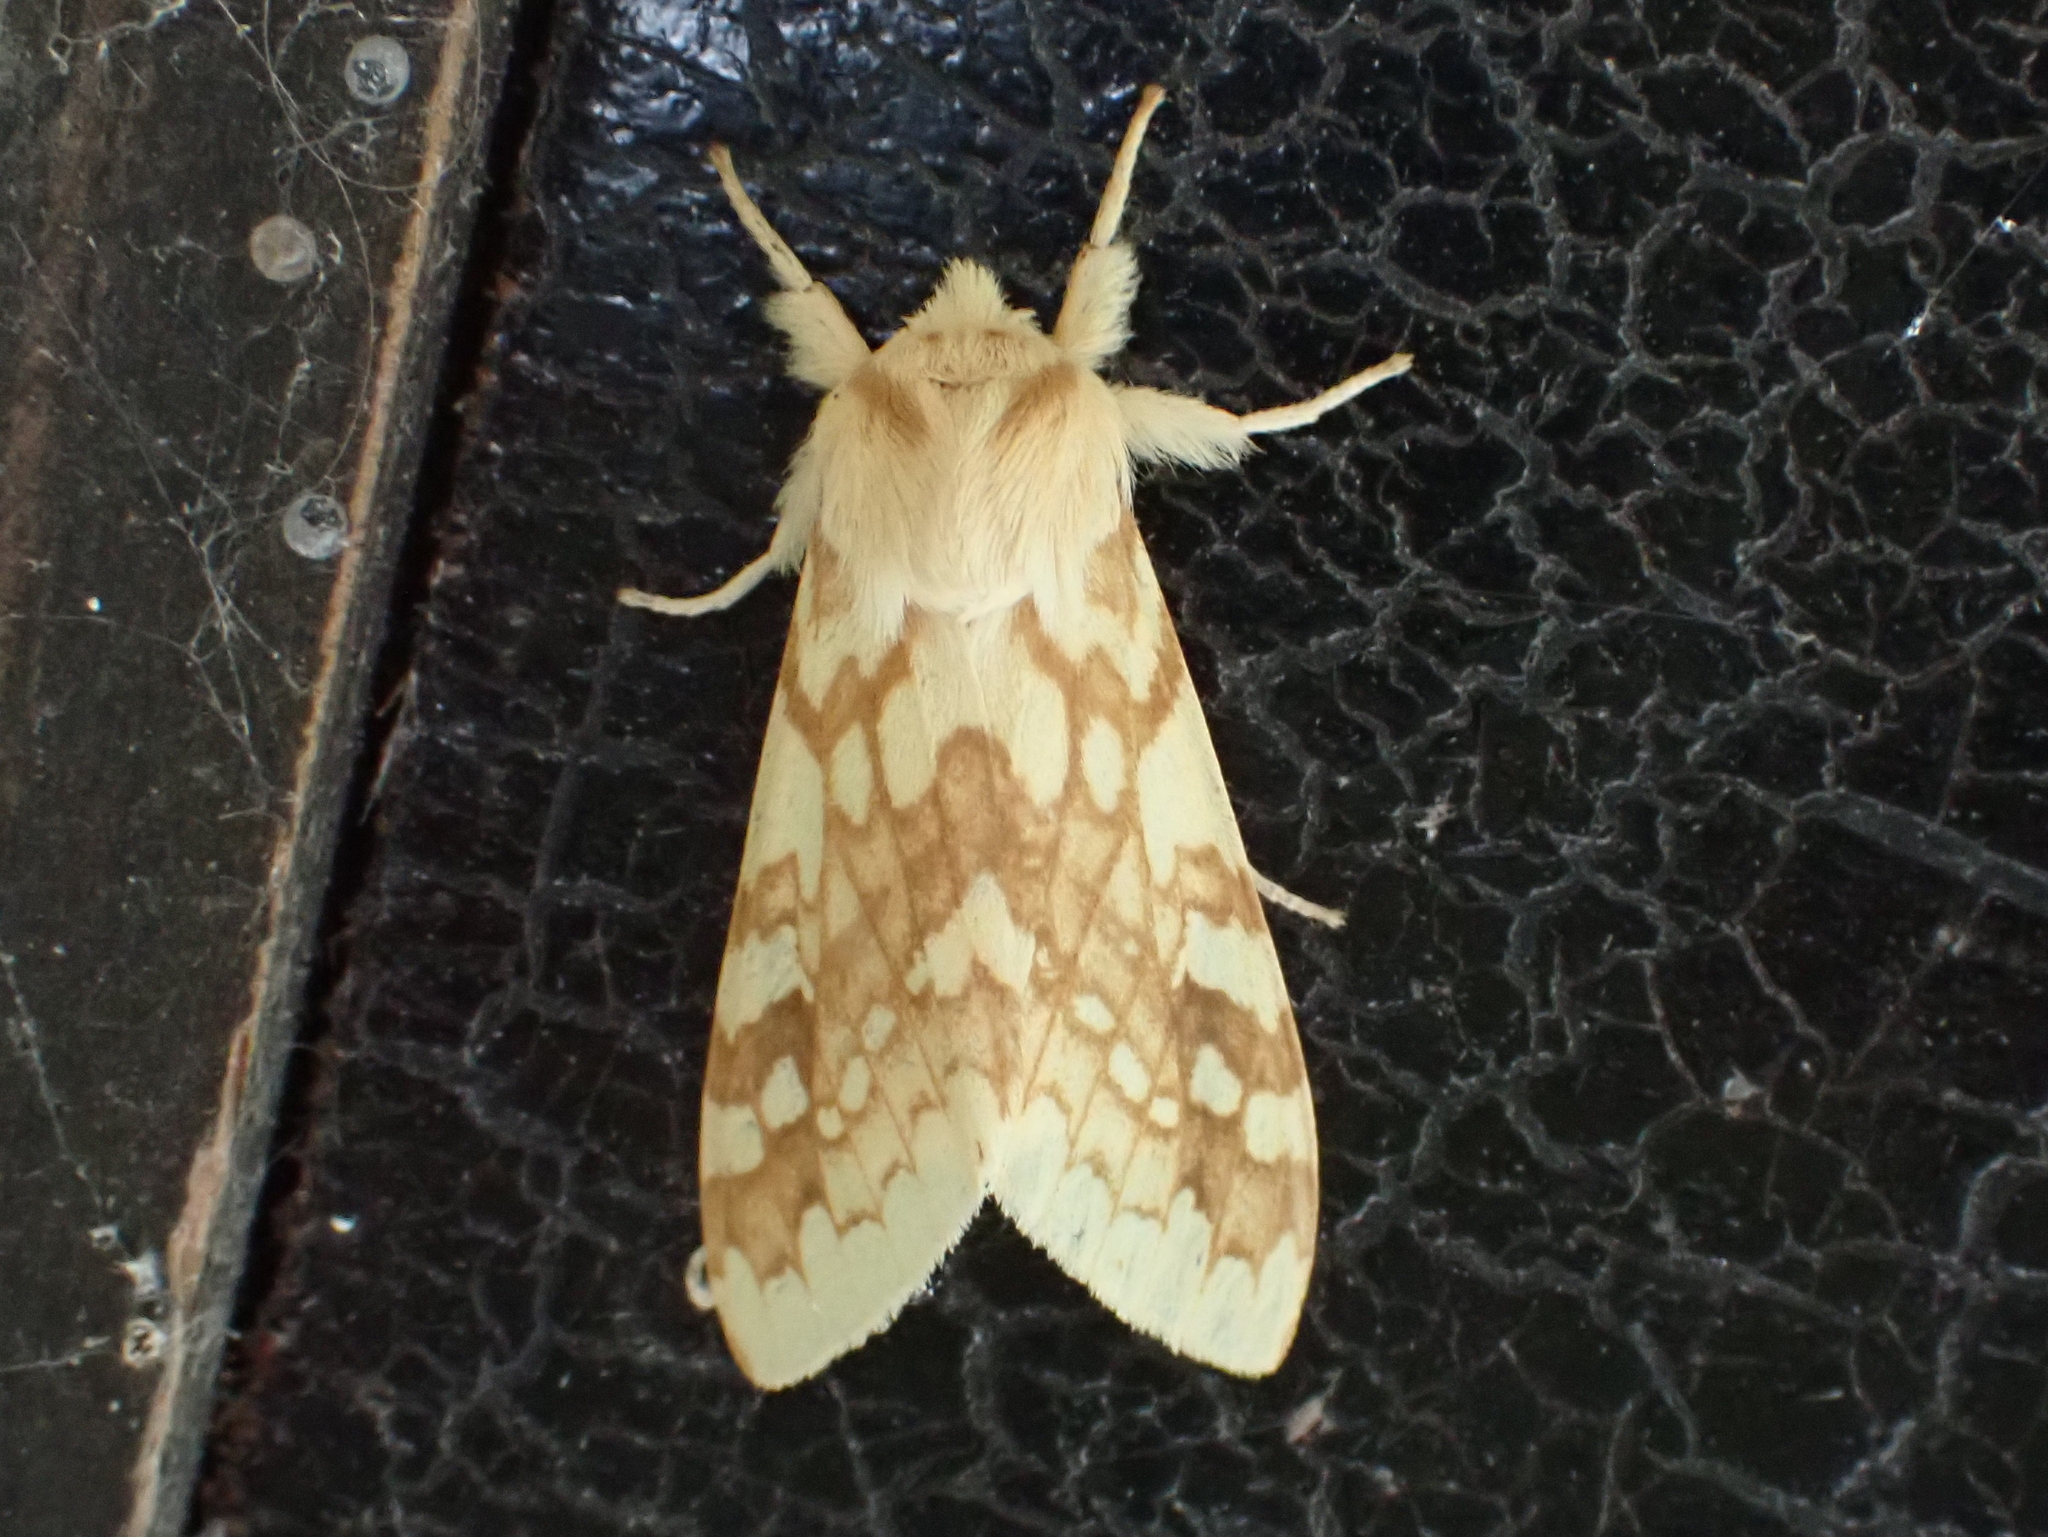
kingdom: Animalia
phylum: Arthropoda
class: Insecta
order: Lepidoptera
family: Erebidae
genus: Lophocampa
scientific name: Lophocampa maculata
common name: Spotted tussock moth
